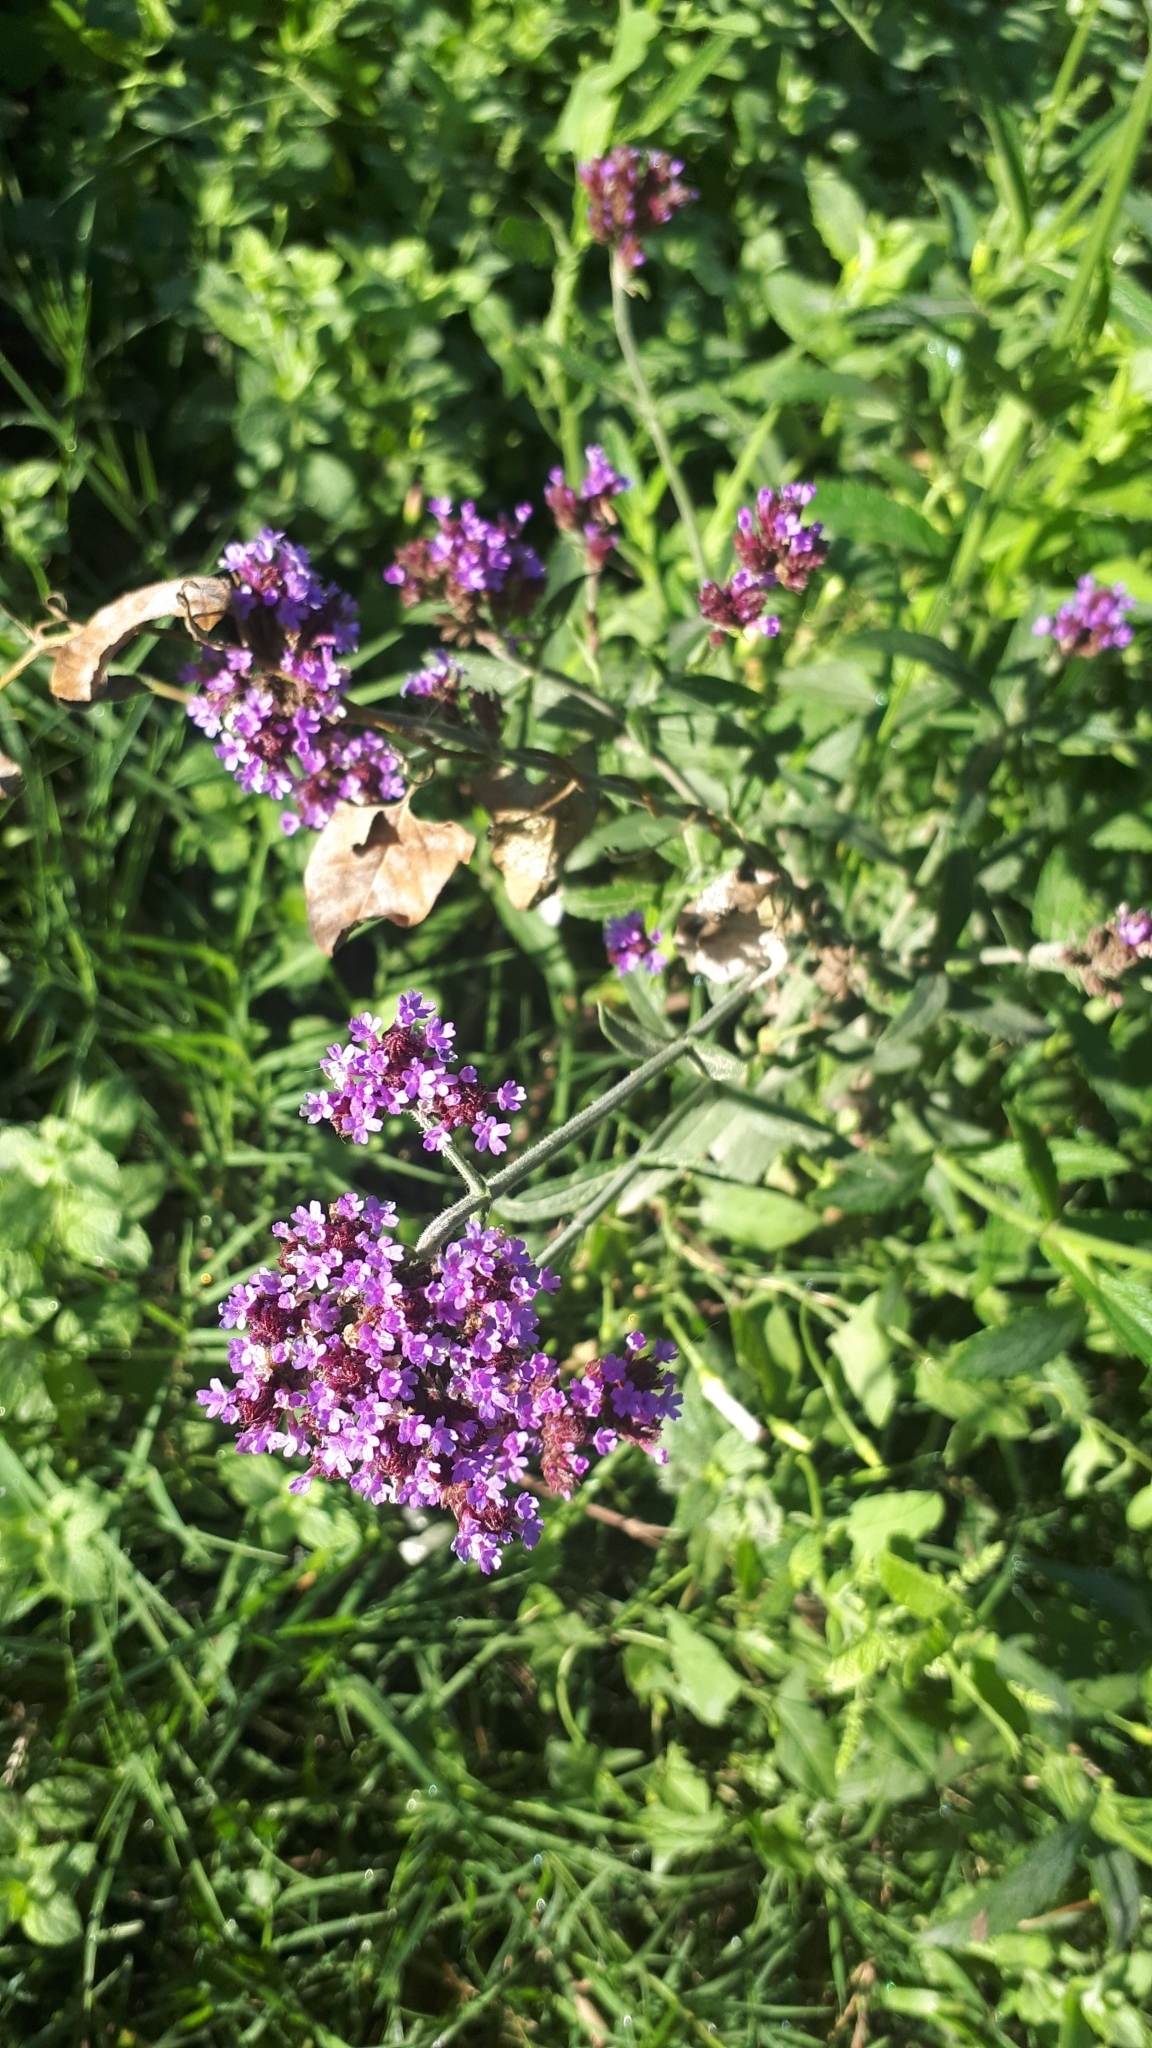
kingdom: Plantae
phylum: Tracheophyta
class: Magnoliopsida
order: Lamiales
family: Verbenaceae
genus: Verbena
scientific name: Verbena bonariensis
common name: Purpletop vervain
